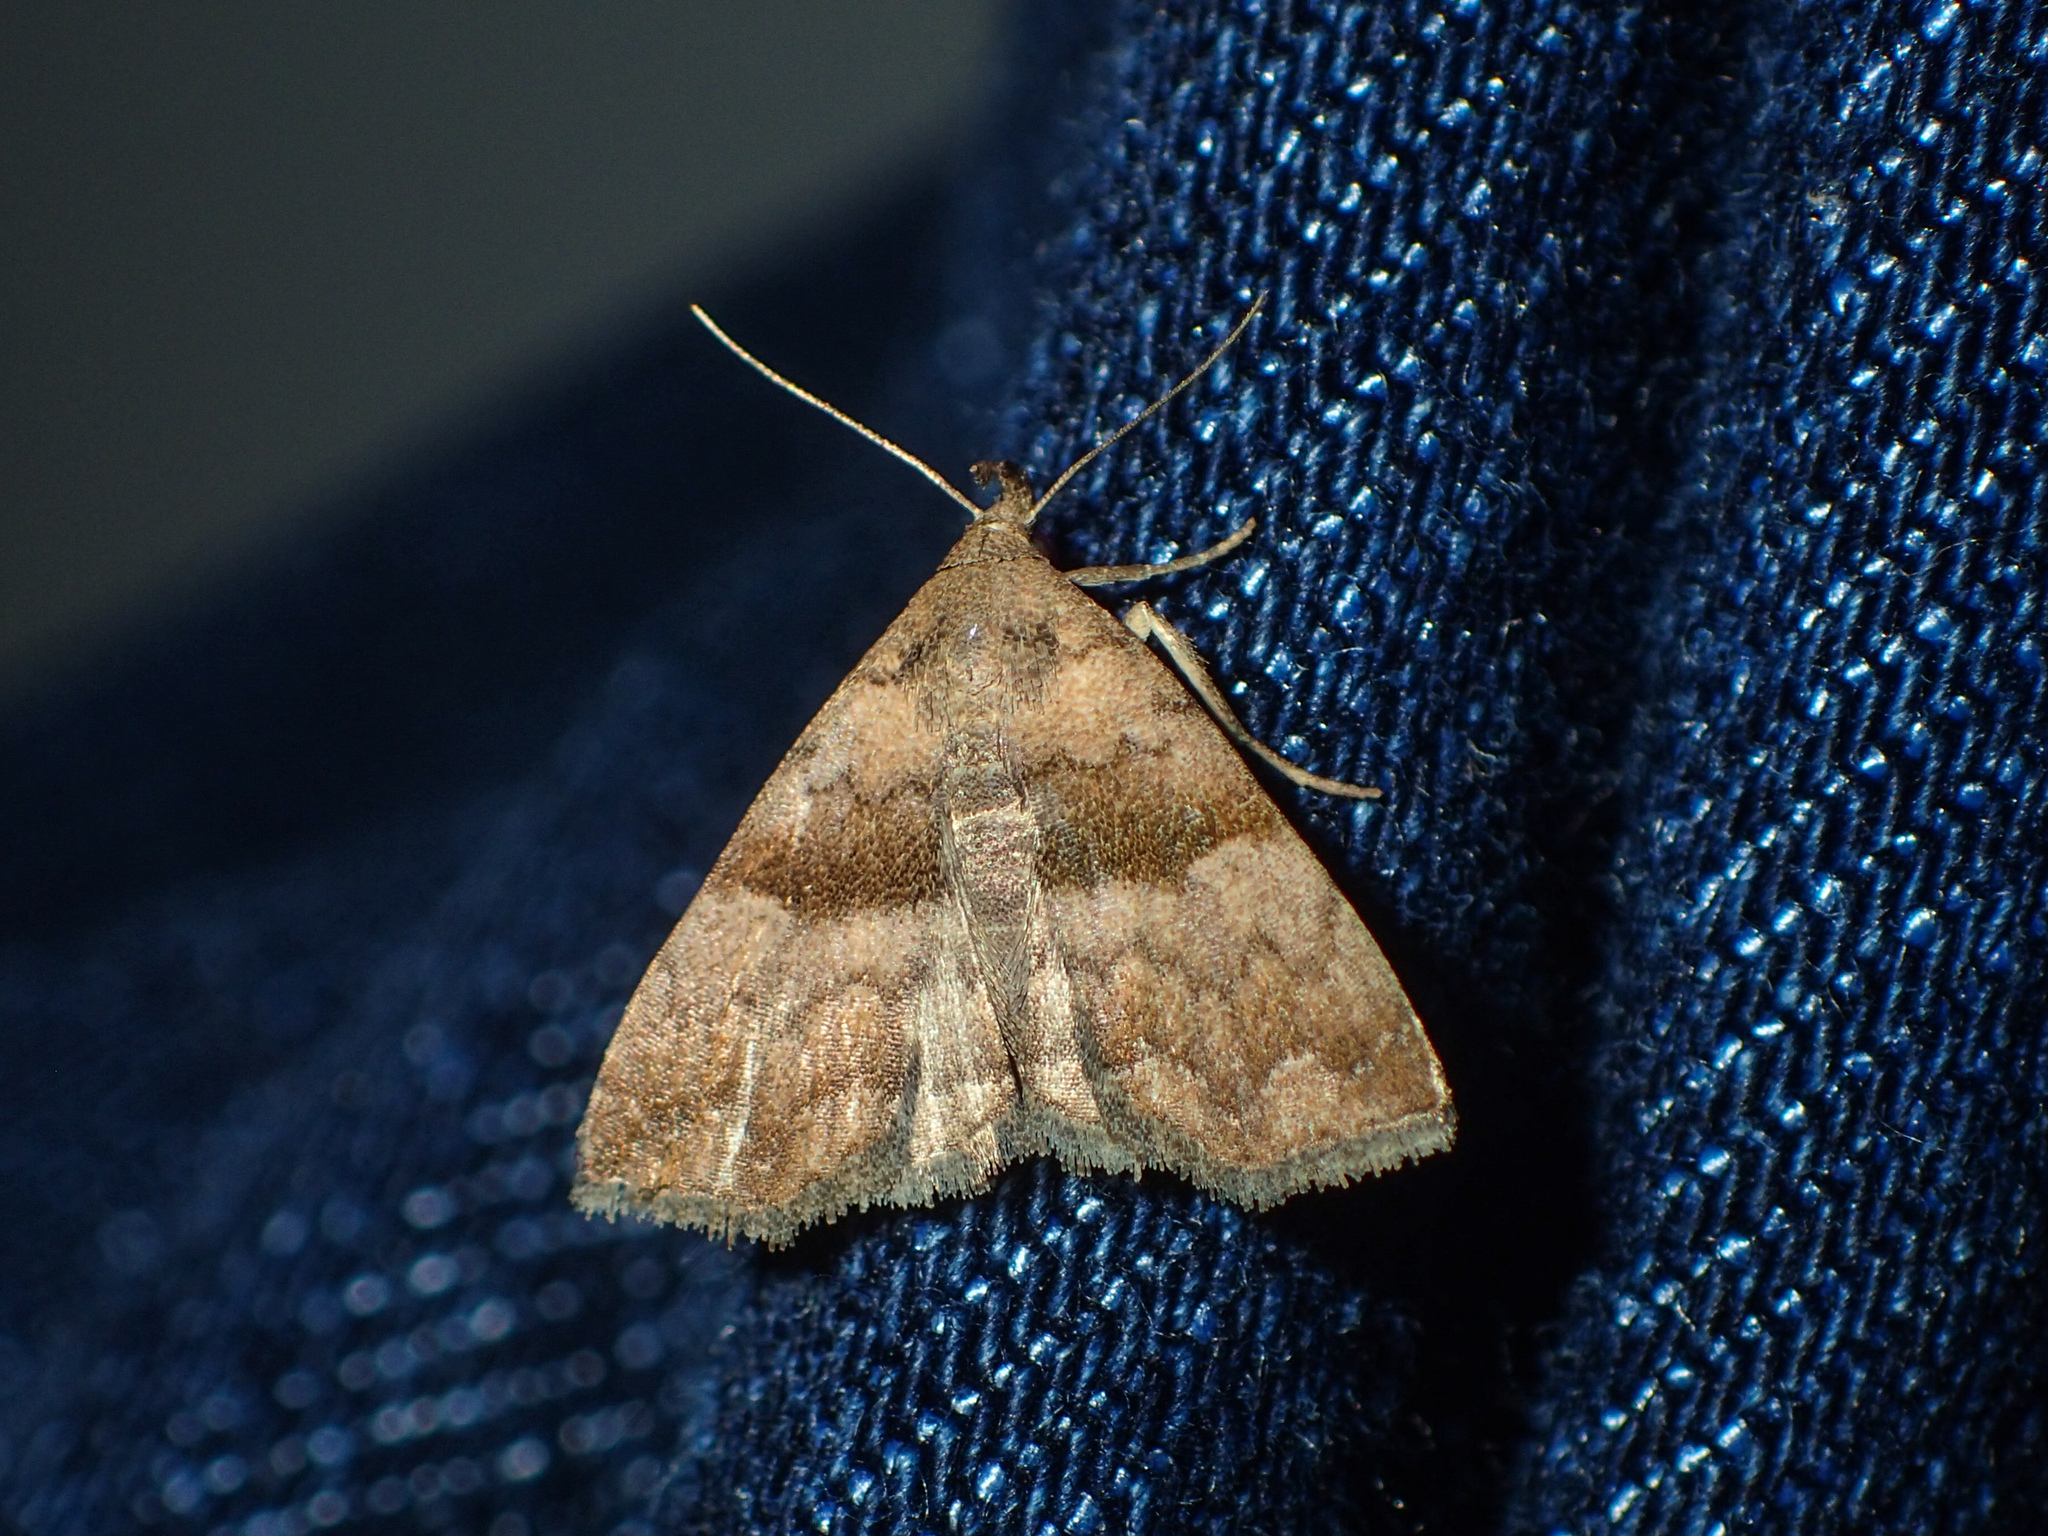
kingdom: Animalia
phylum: Arthropoda
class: Insecta
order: Lepidoptera
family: Erebidae
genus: Polypogon
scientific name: Polypogon Hipoepa fractalis
